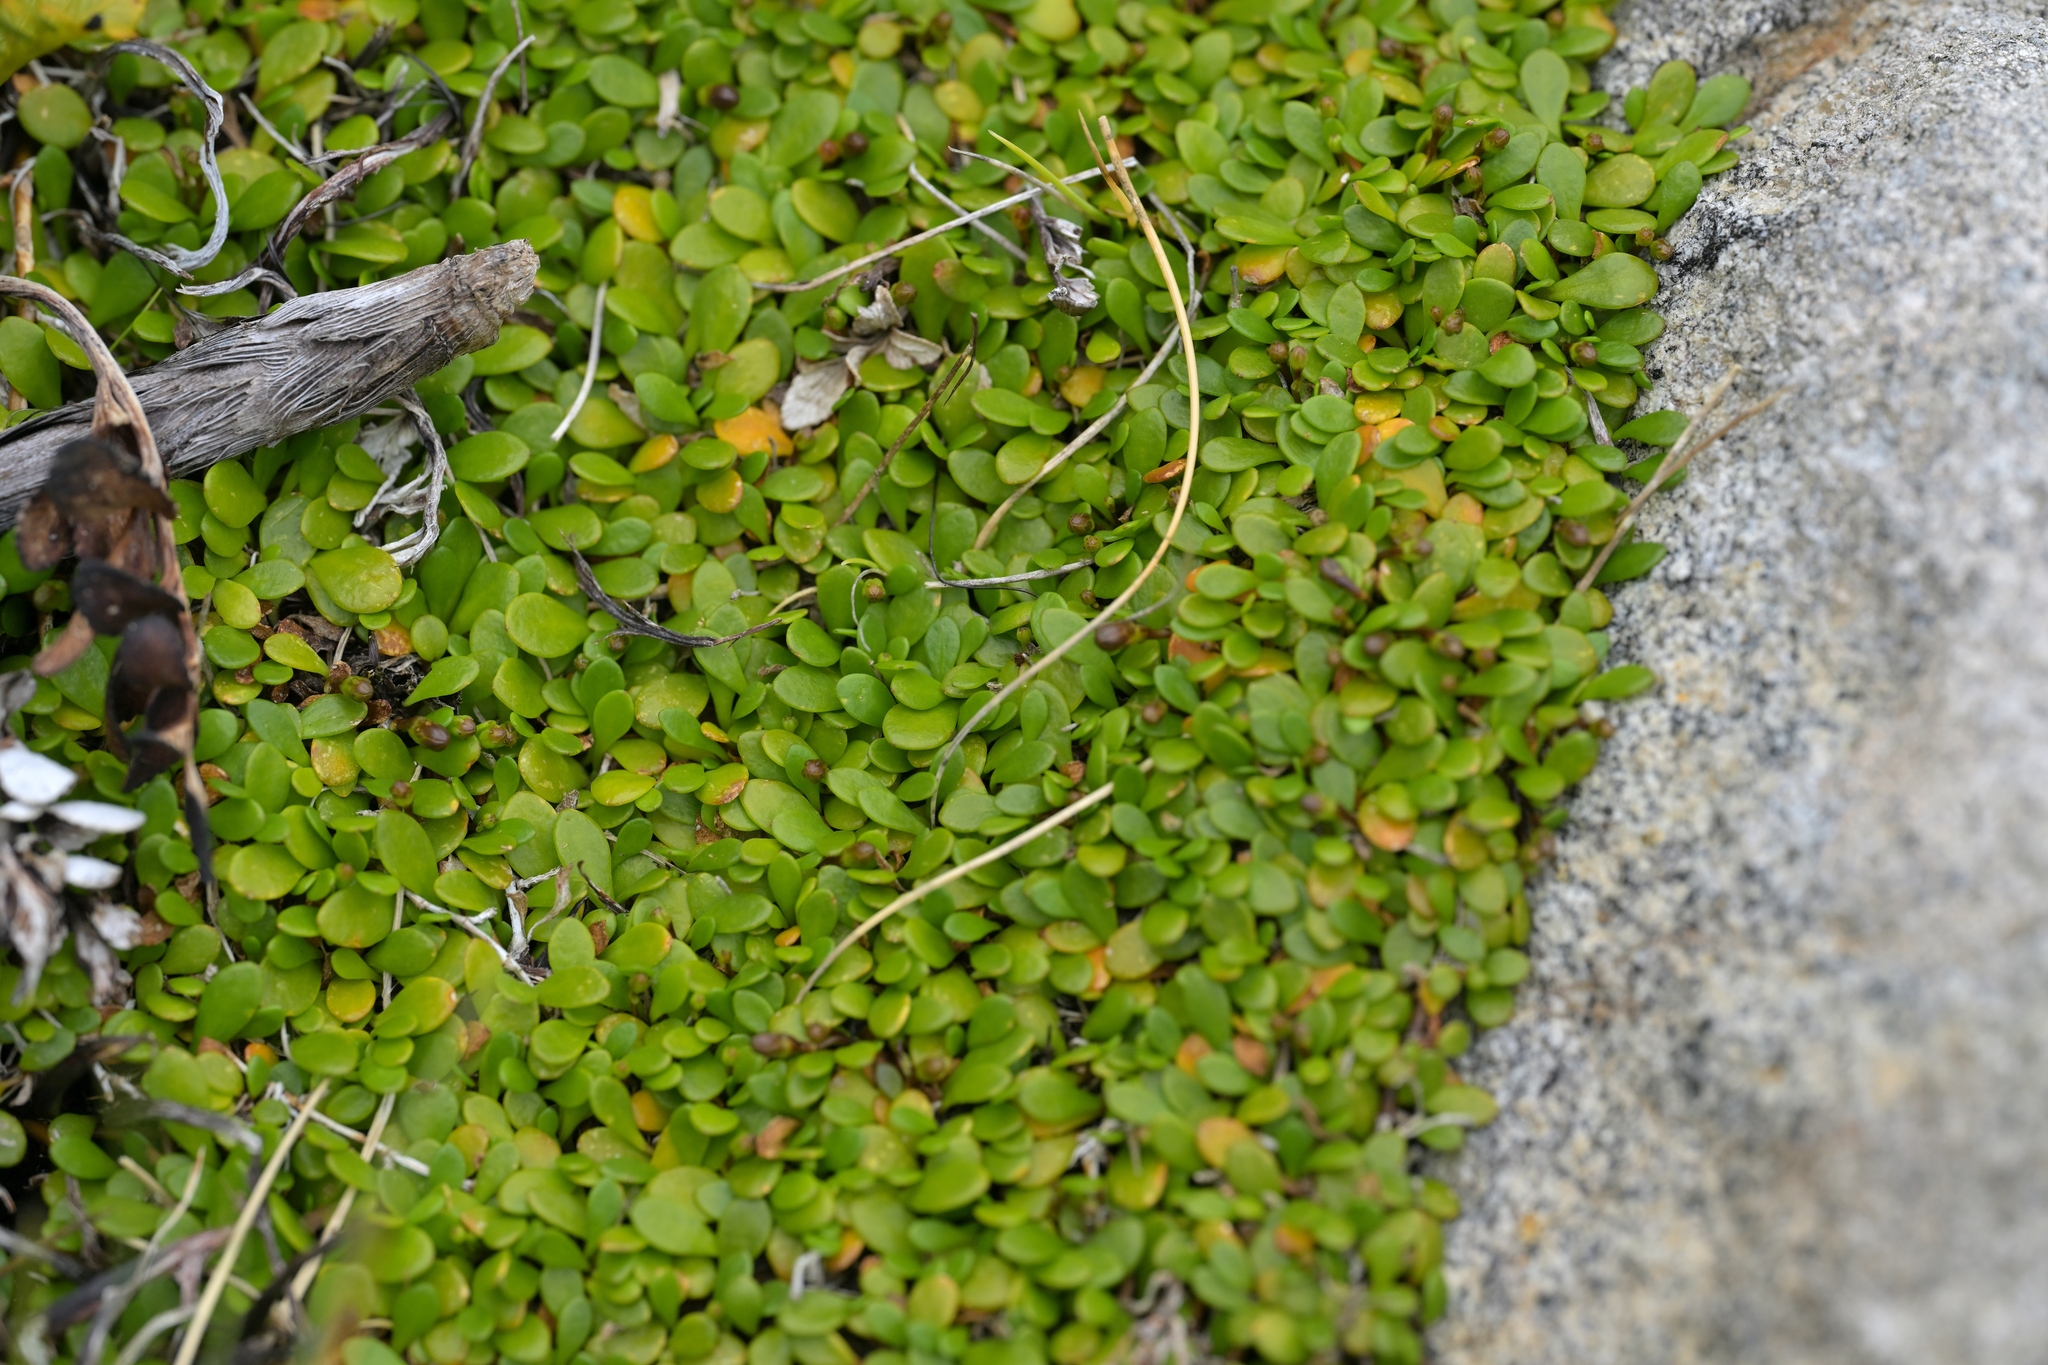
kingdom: Plantae
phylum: Tracheophyta
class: Magnoliopsida
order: Asterales
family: Goodeniaceae
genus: Goodenia
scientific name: Goodenia radicans
